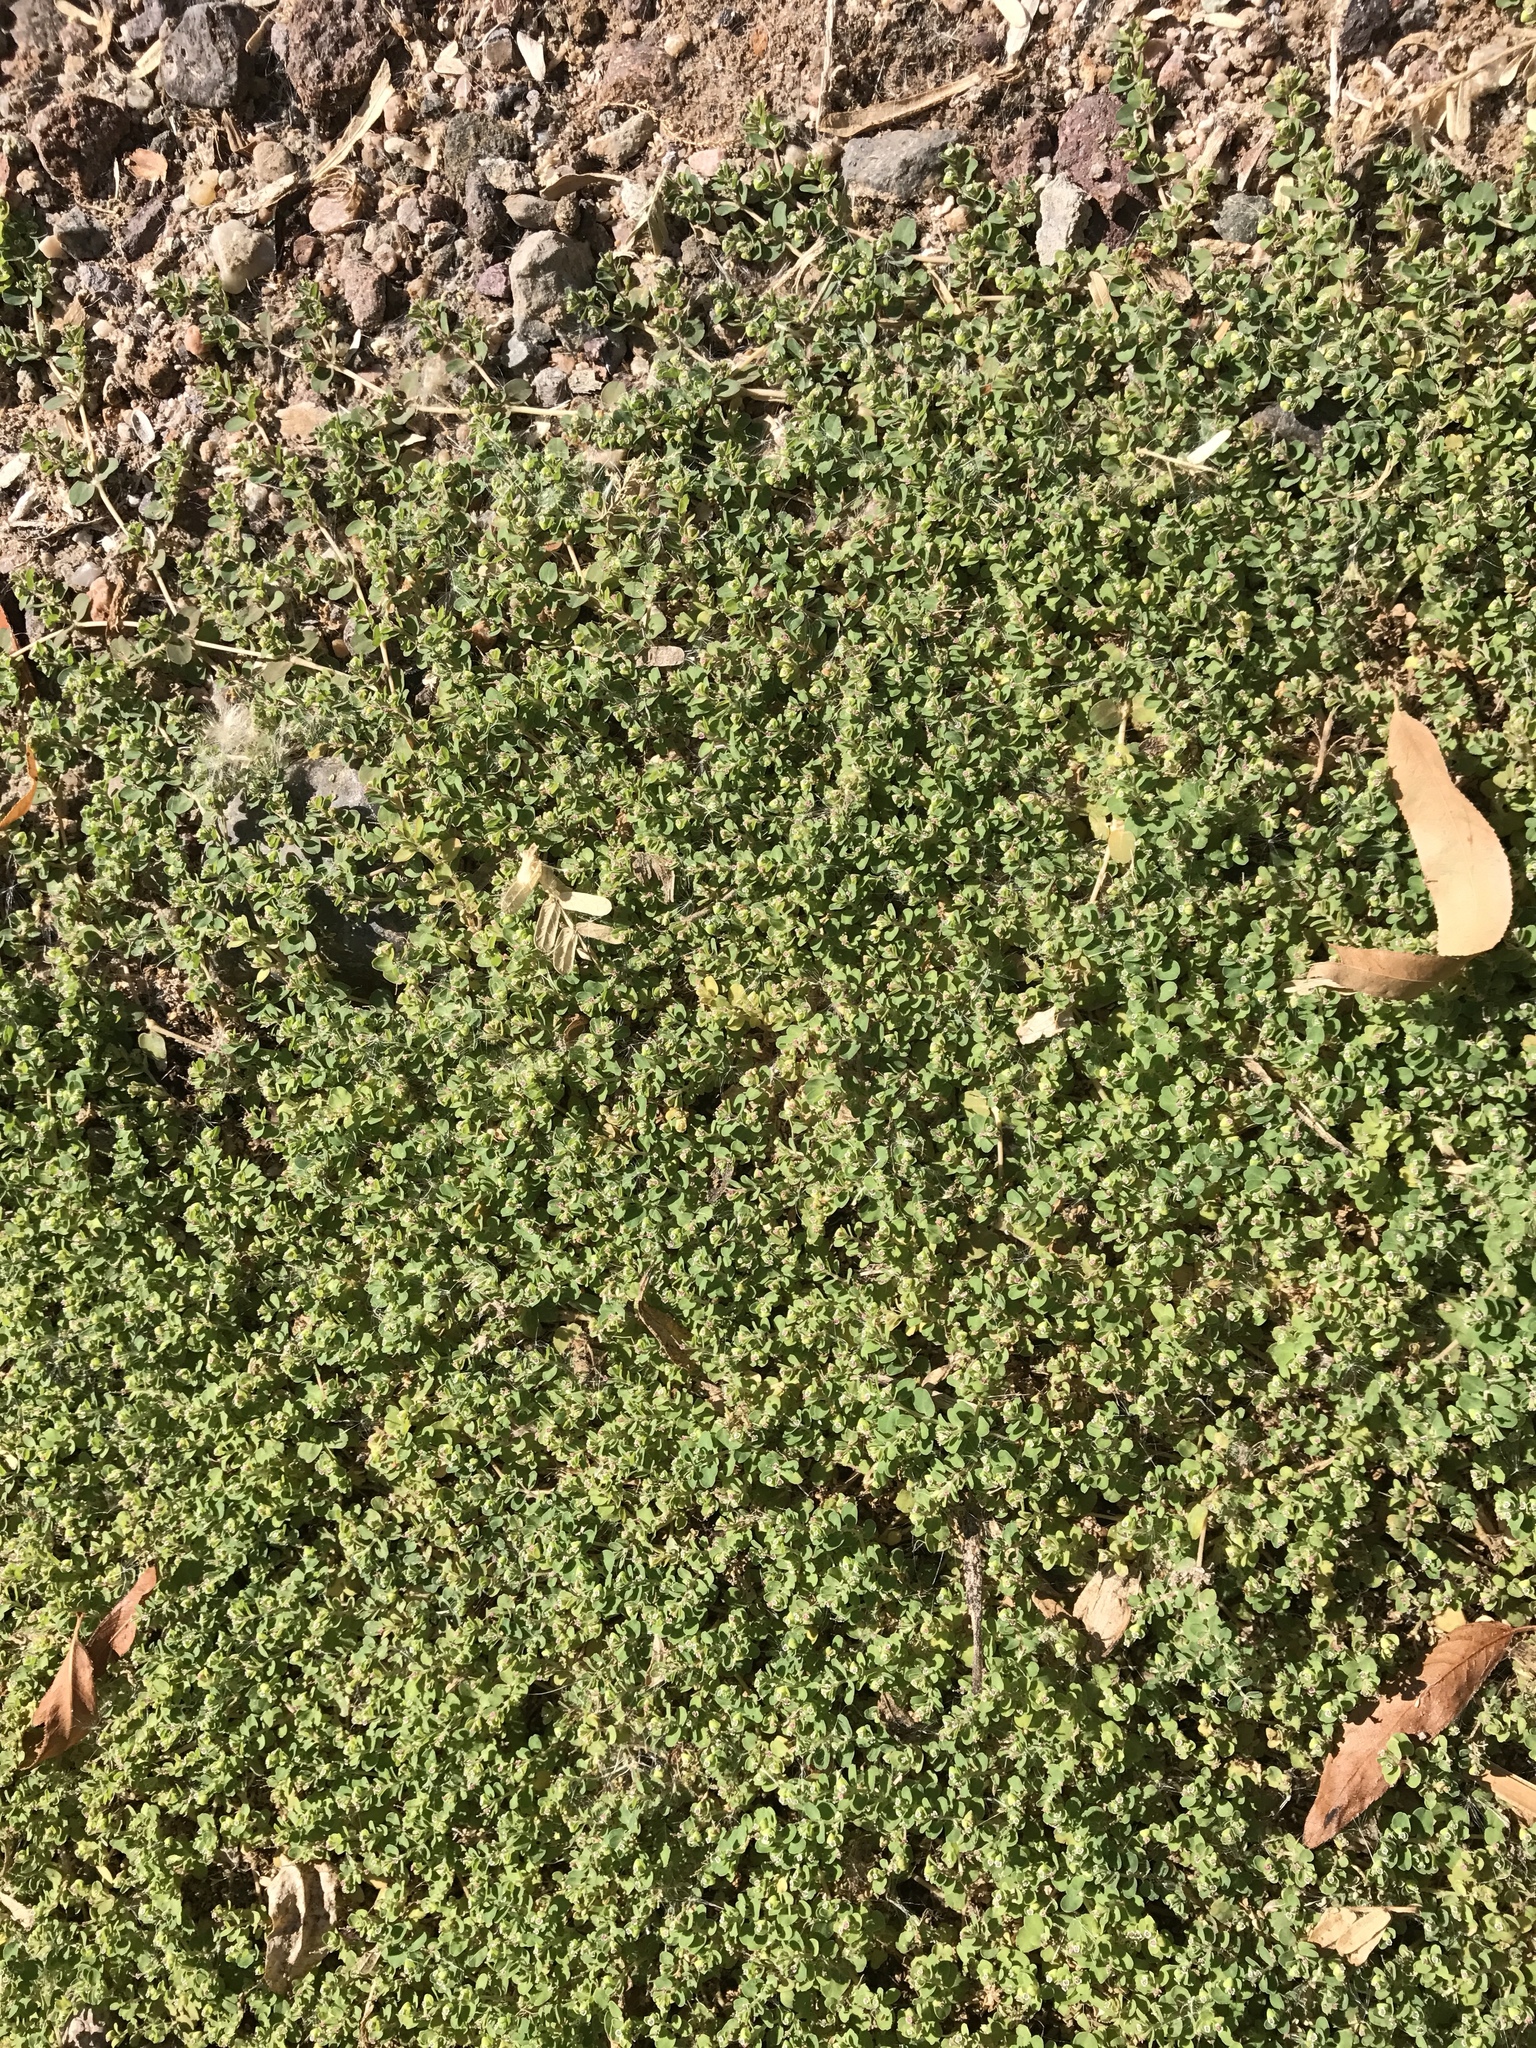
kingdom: Plantae
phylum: Tracheophyta
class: Magnoliopsida
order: Malpighiales
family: Euphorbiaceae
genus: Euphorbia
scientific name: Euphorbia serpens
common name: Matted sandmat
